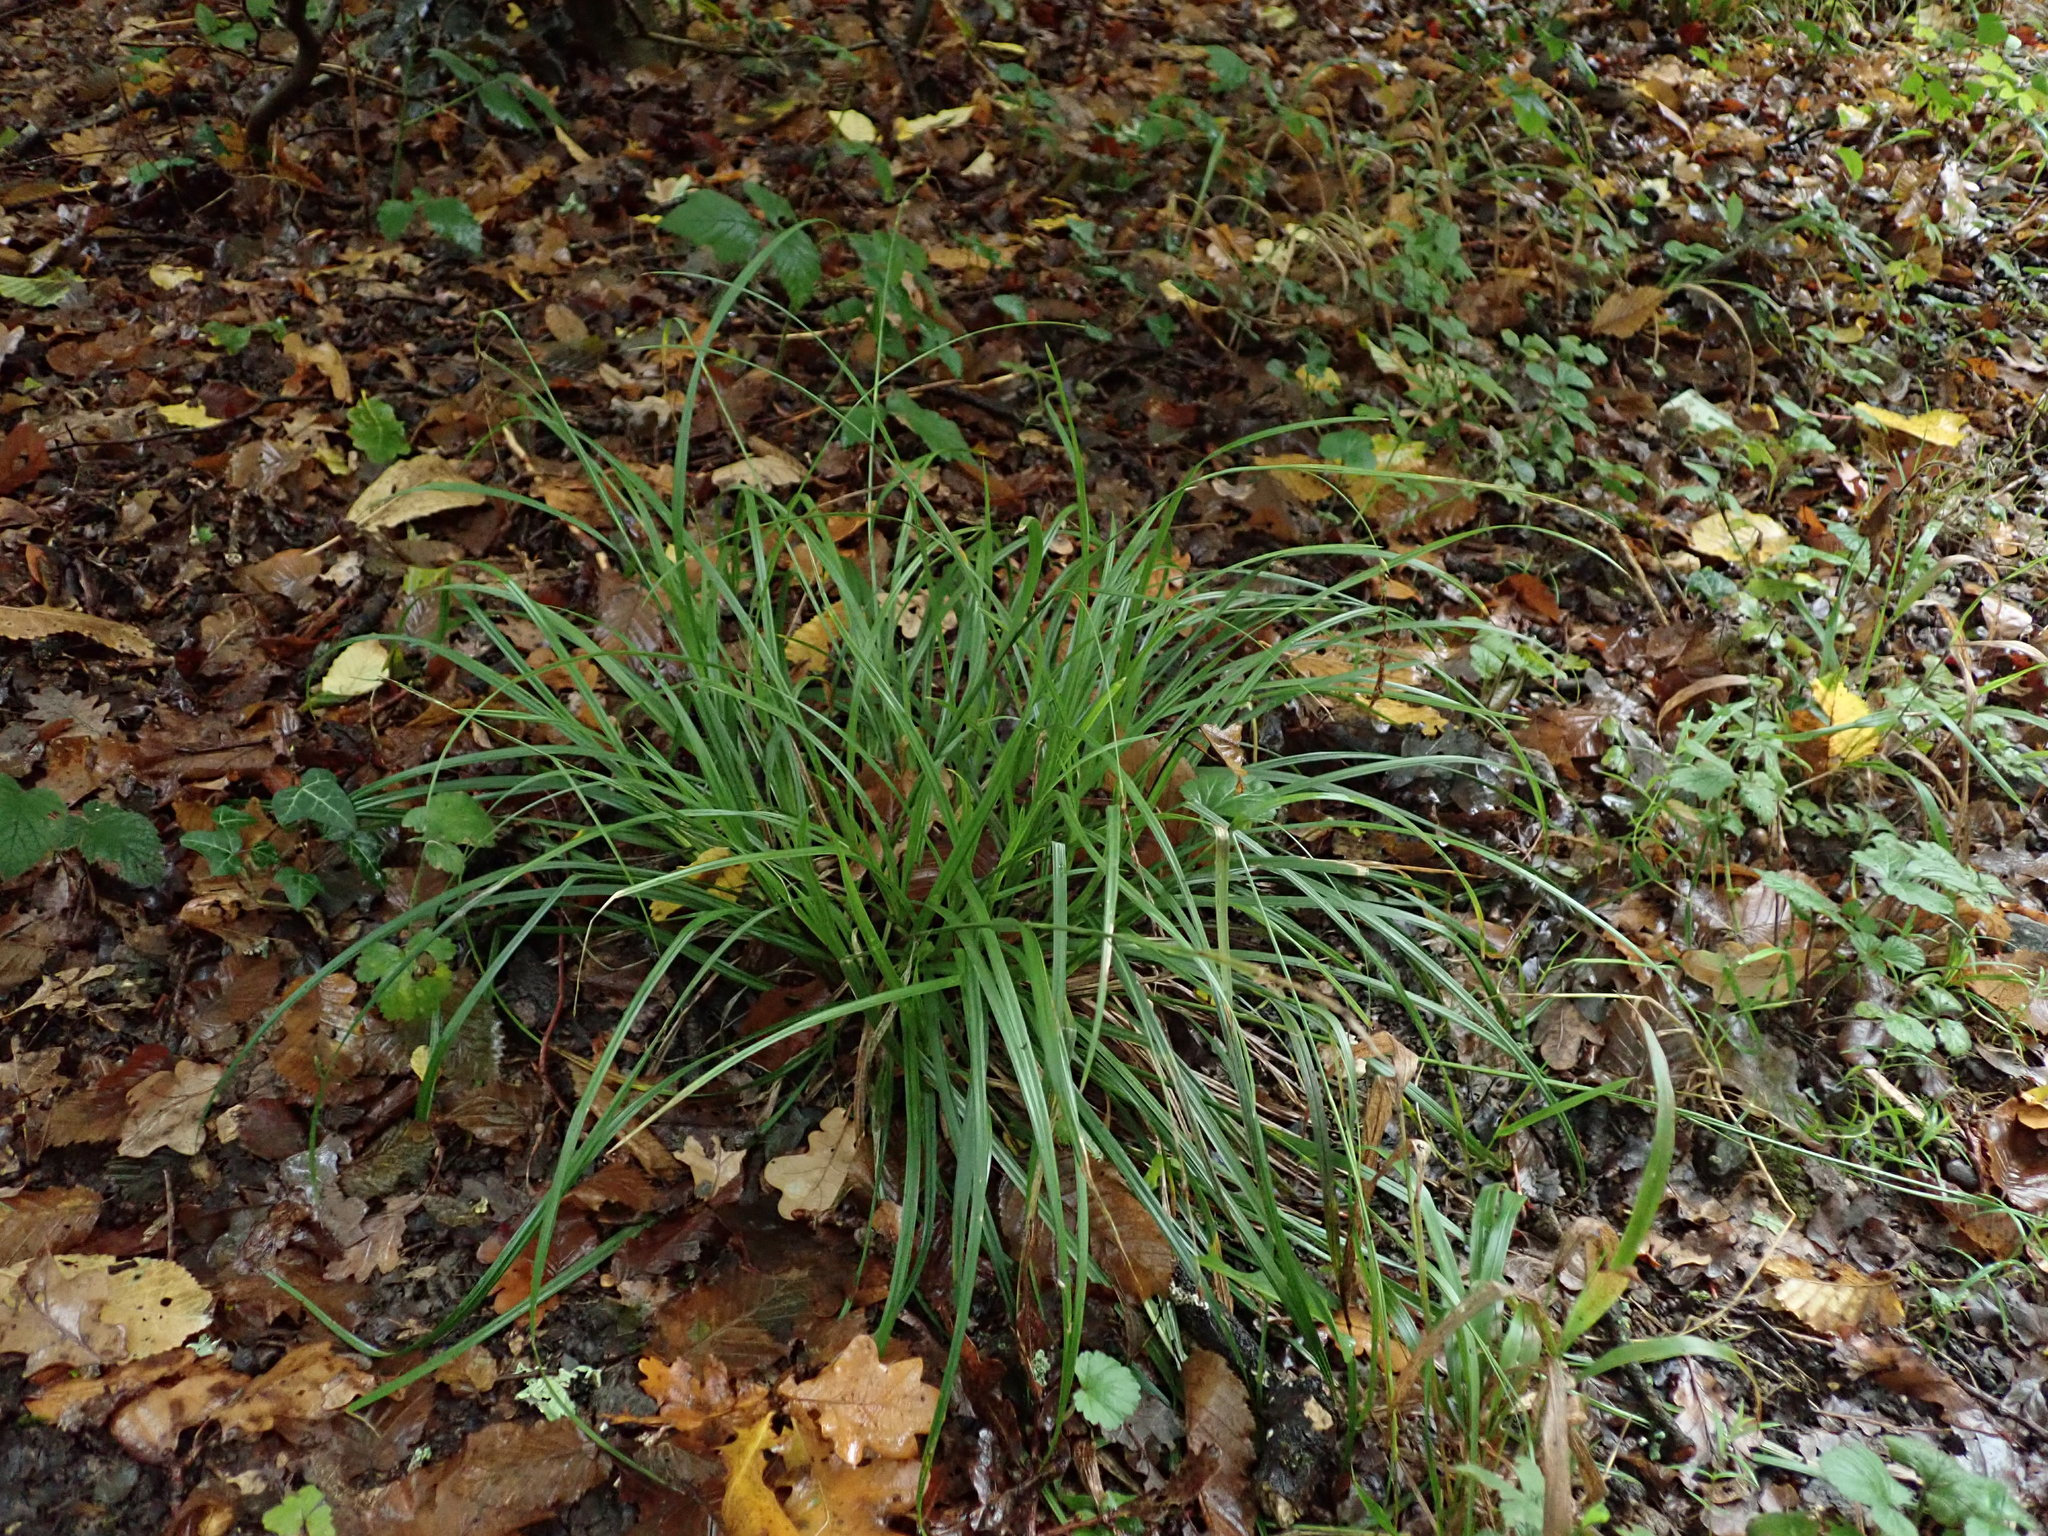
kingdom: Plantae
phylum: Tracheophyta
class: Liliopsida
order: Poales
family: Cyperaceae
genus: Carex
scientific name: Carex sylvatica
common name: Wood-sedge
